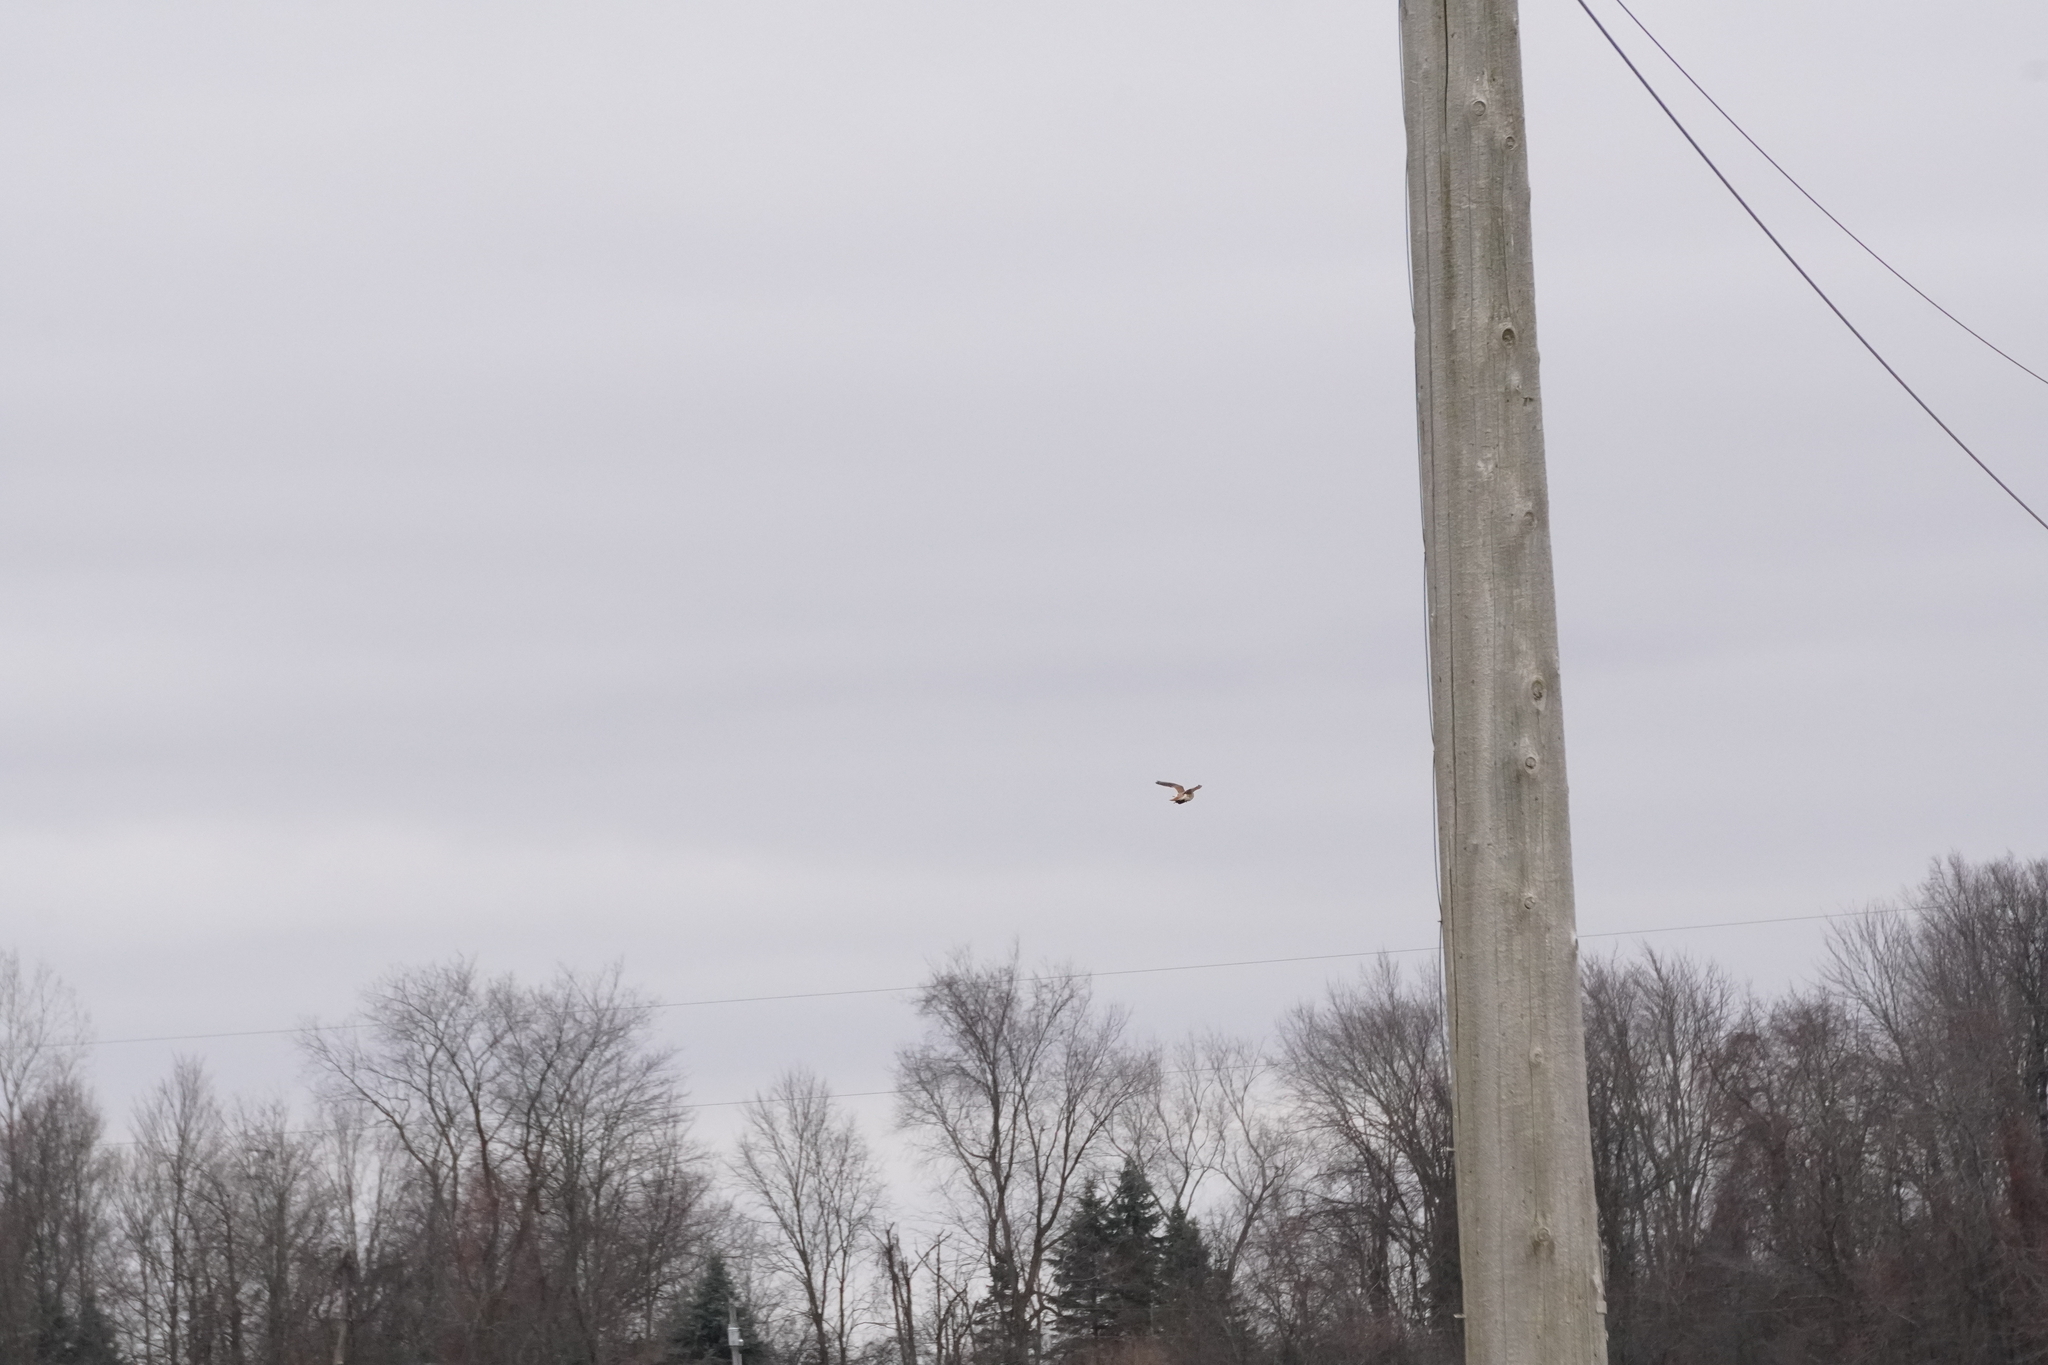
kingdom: Animalia
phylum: Chordata
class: Aves
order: Falconiformes
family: Falconidae
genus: Falco
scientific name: Falco sparverius
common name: American kestrel
